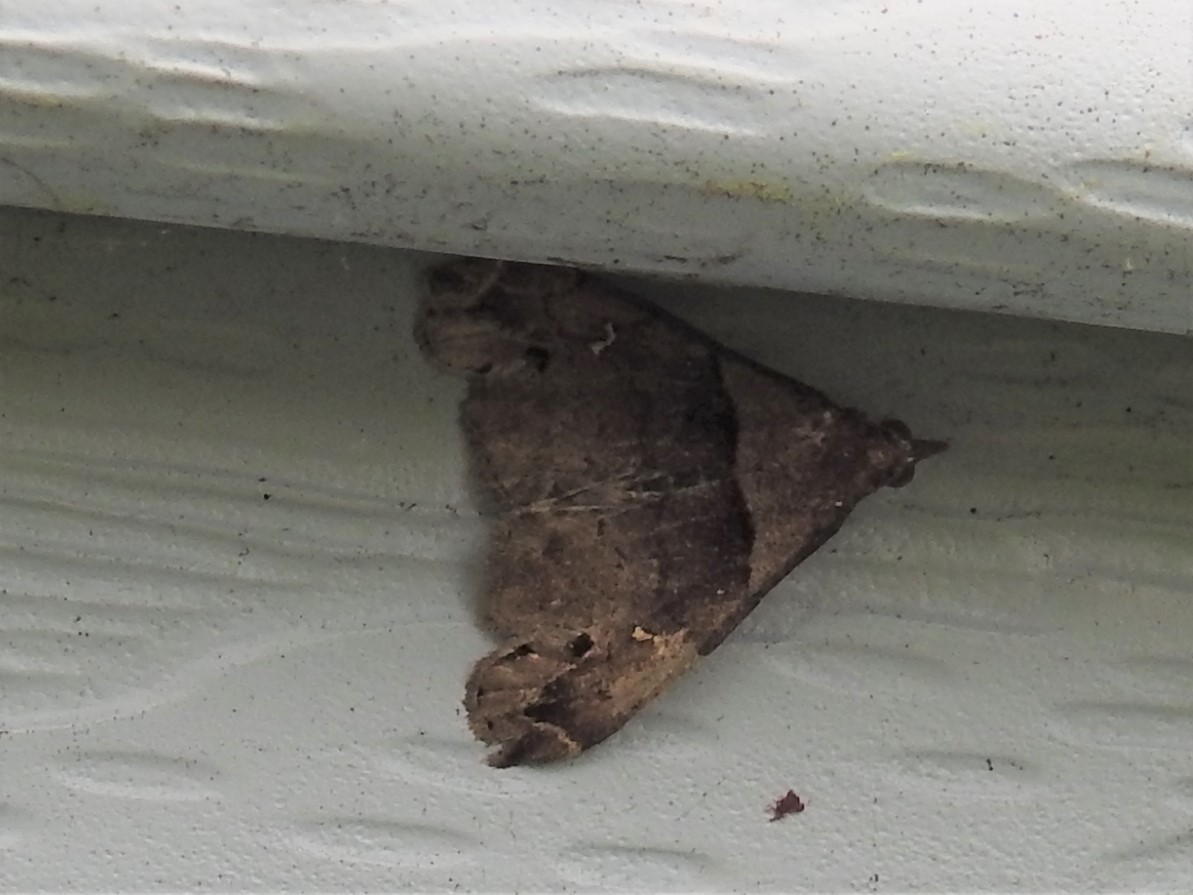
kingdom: Animalia
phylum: Arthropoda
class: Insecta
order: Lepidoptera
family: Erebidae
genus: Lascoria
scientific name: Lascoria ambigualis
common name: Ambiguous moth
